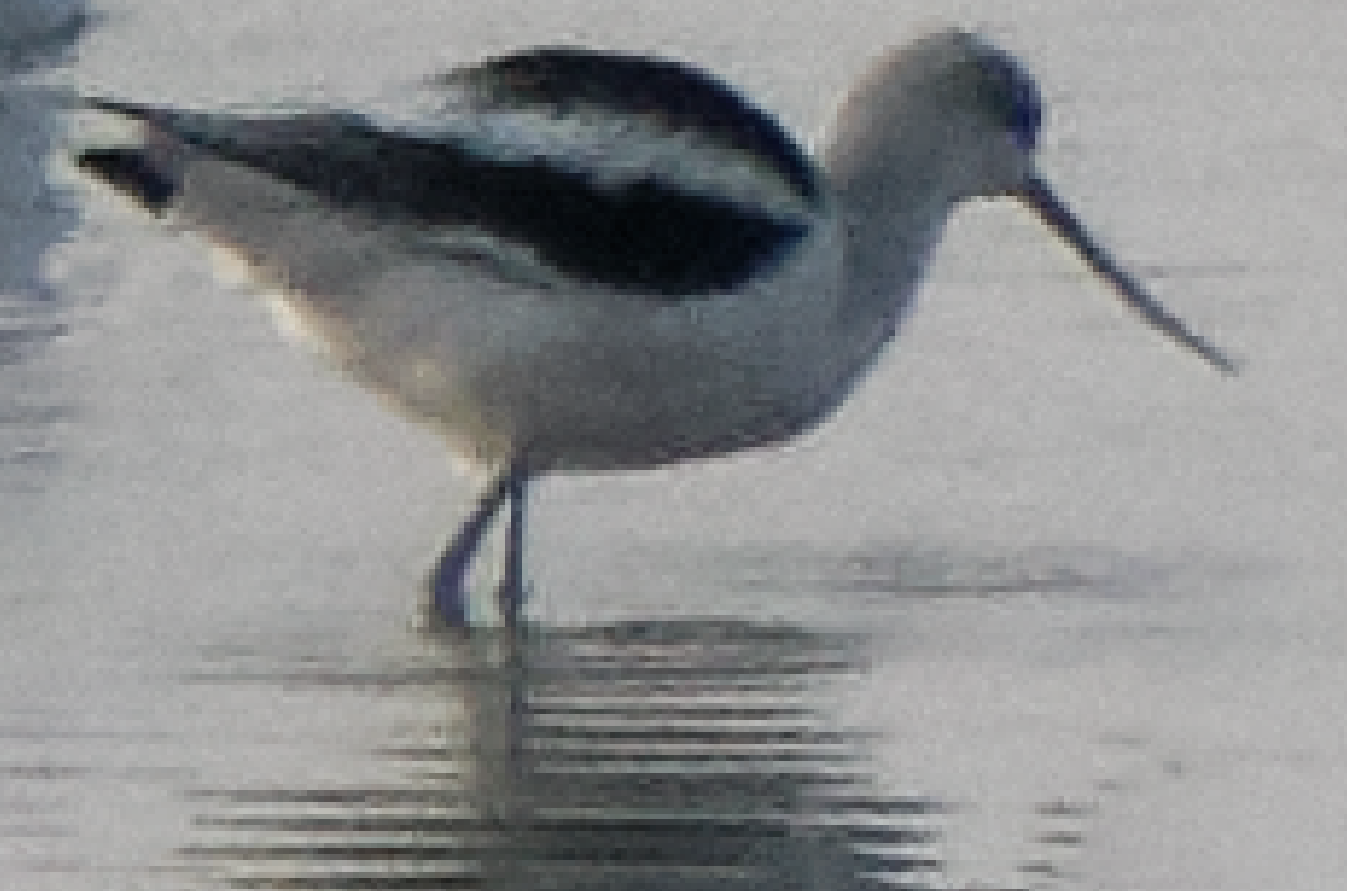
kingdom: Animalia
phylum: Chordata
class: Aves
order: Charadriiformes
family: Recurvirostridae
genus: Recurvirostra
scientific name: Recurvirostra americana
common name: American avocet
